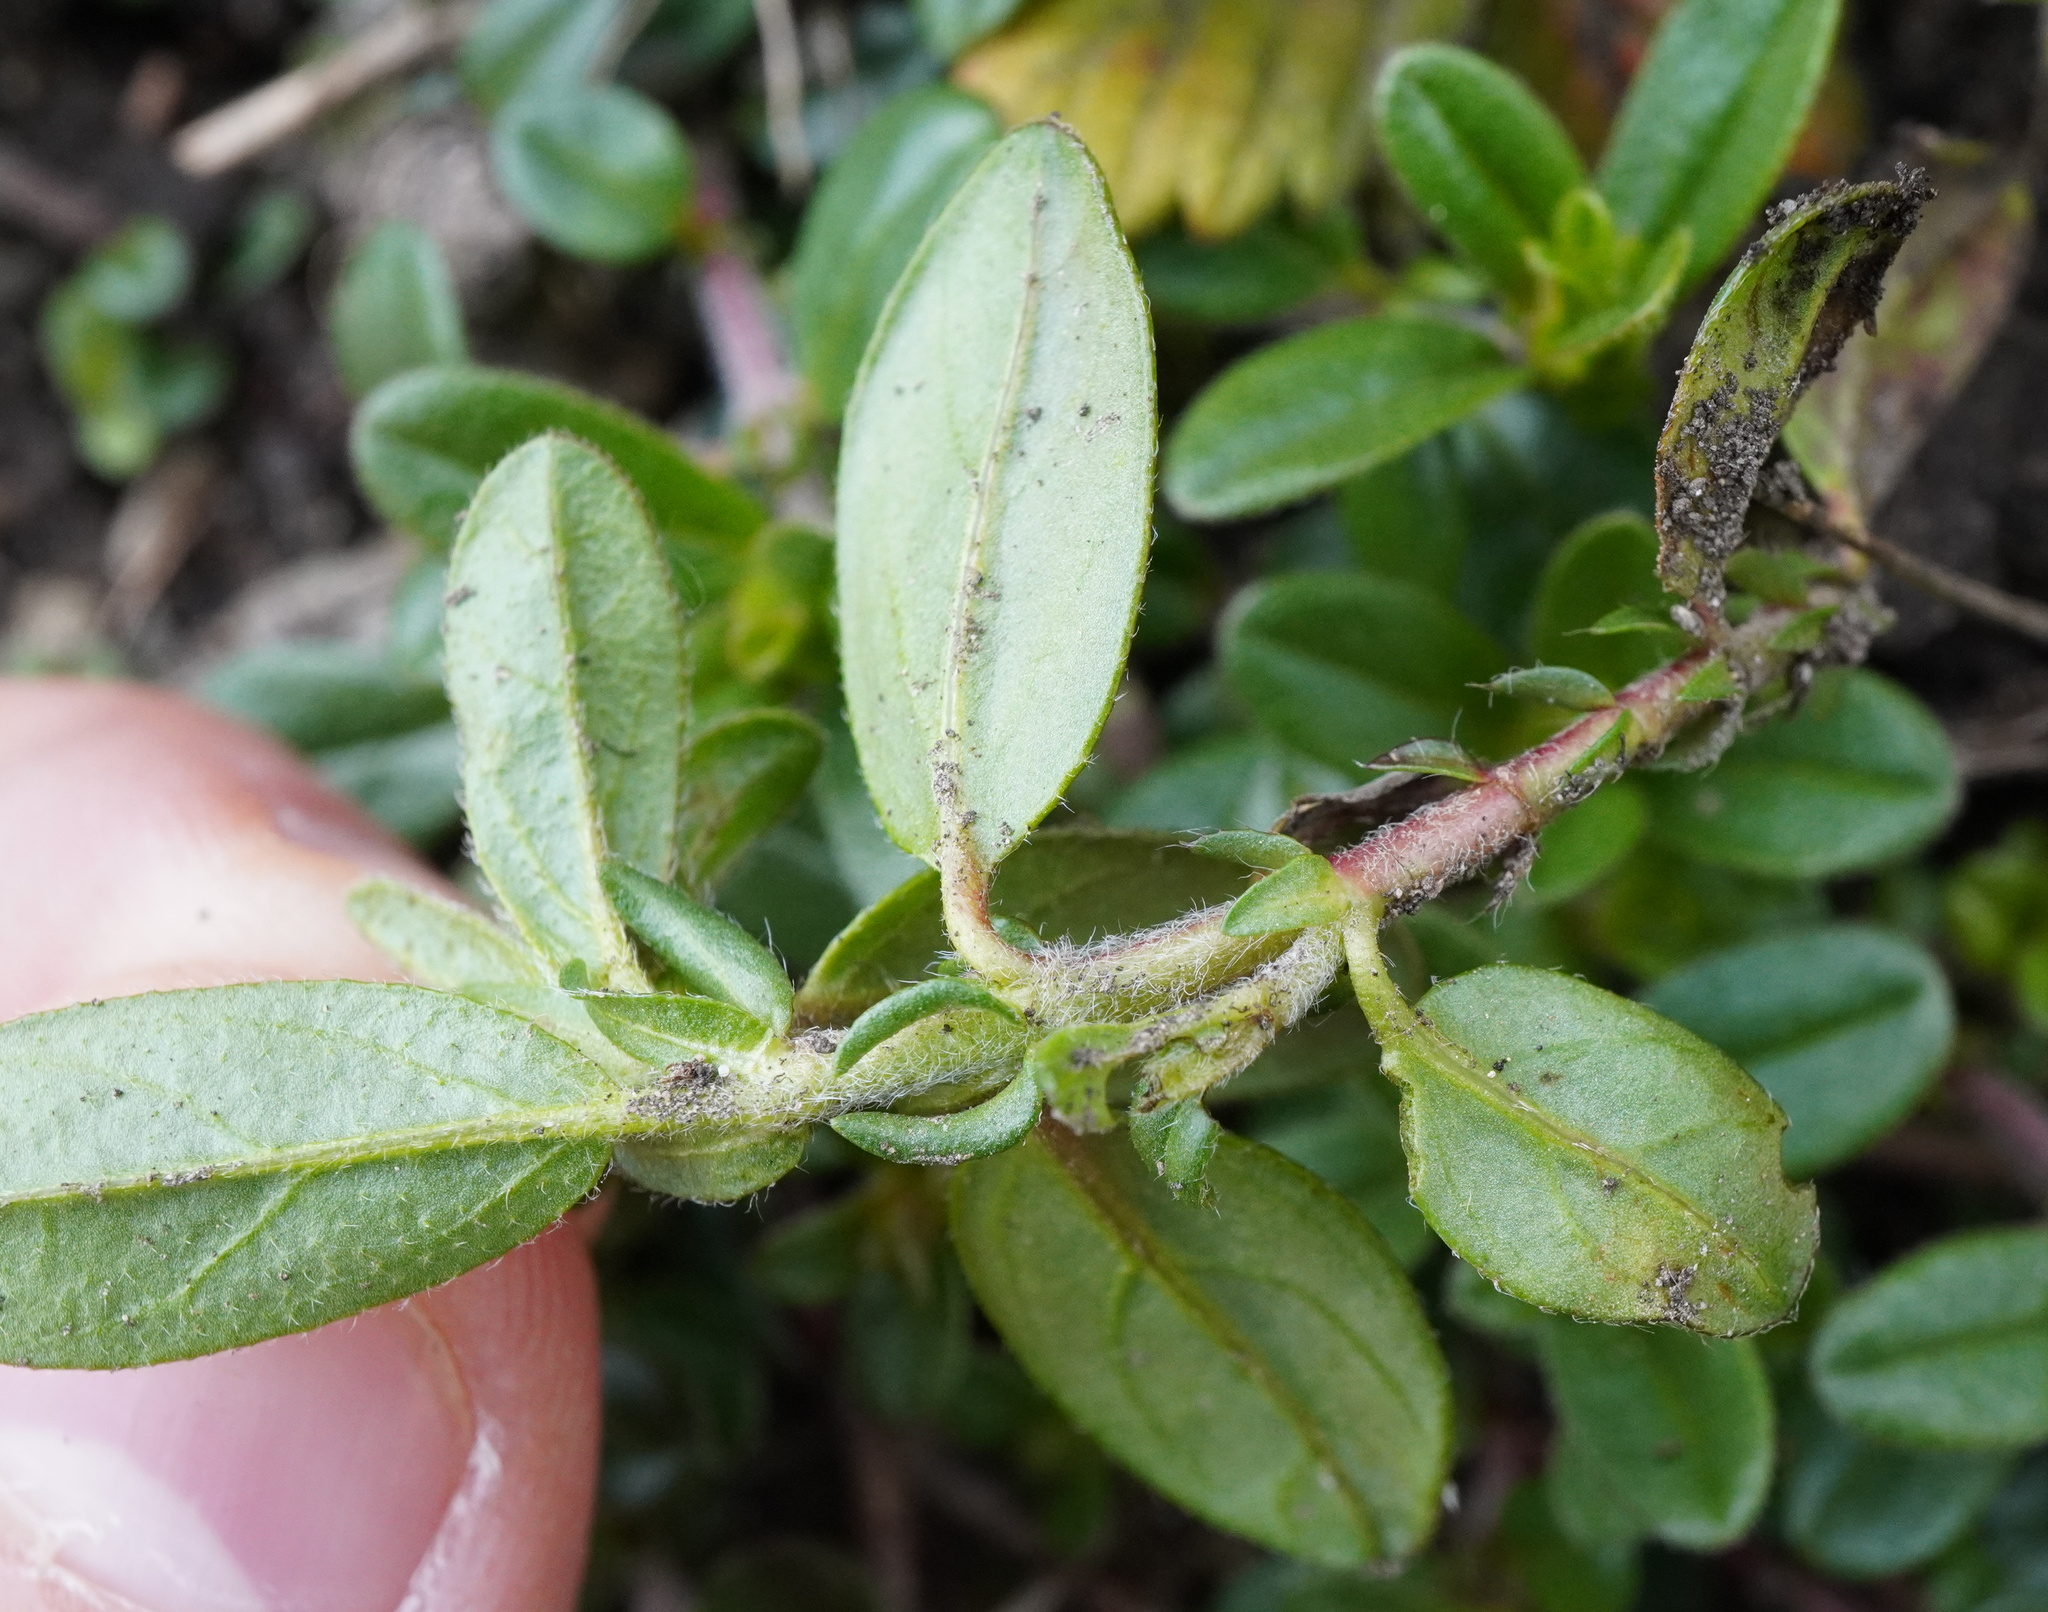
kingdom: Plantae
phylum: Tracheophyta
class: Magnoliopsida
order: Malvales
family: Cistaceae
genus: Helianthemum
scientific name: Helianthemum nummularium
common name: Common rock-rose
